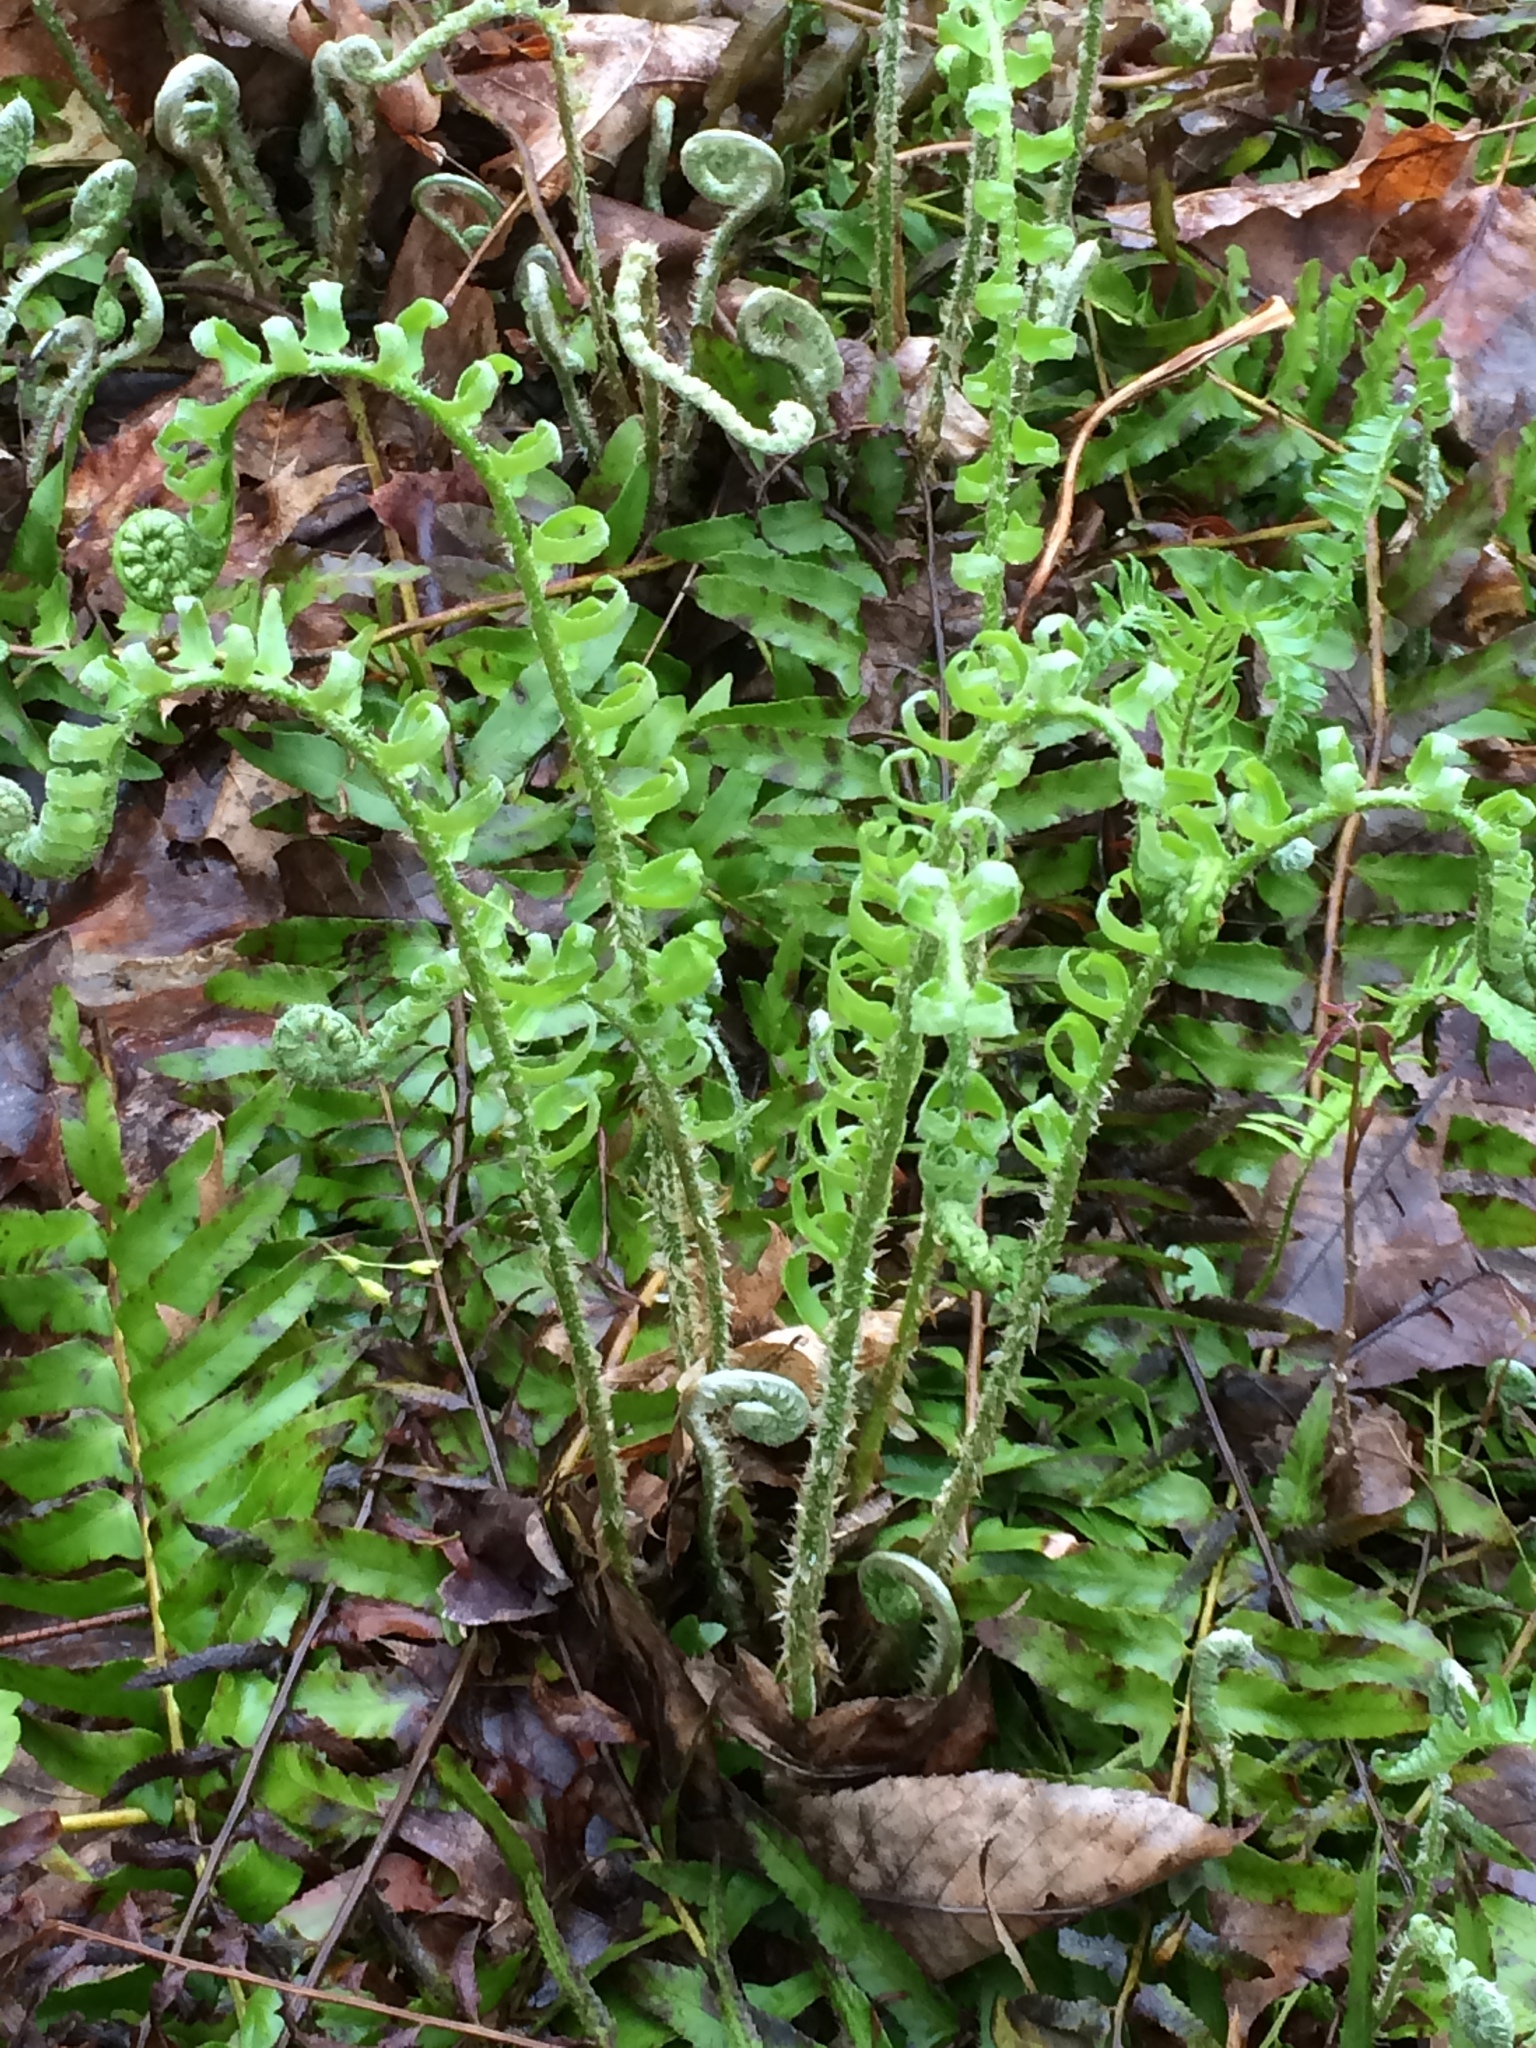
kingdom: Plantae
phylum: Tracheophyta
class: Polypodiopsida
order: Polypodiales
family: Dryopteridaceae
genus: Polystichum
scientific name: Polystichum acrostichoides
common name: Christmas fern
